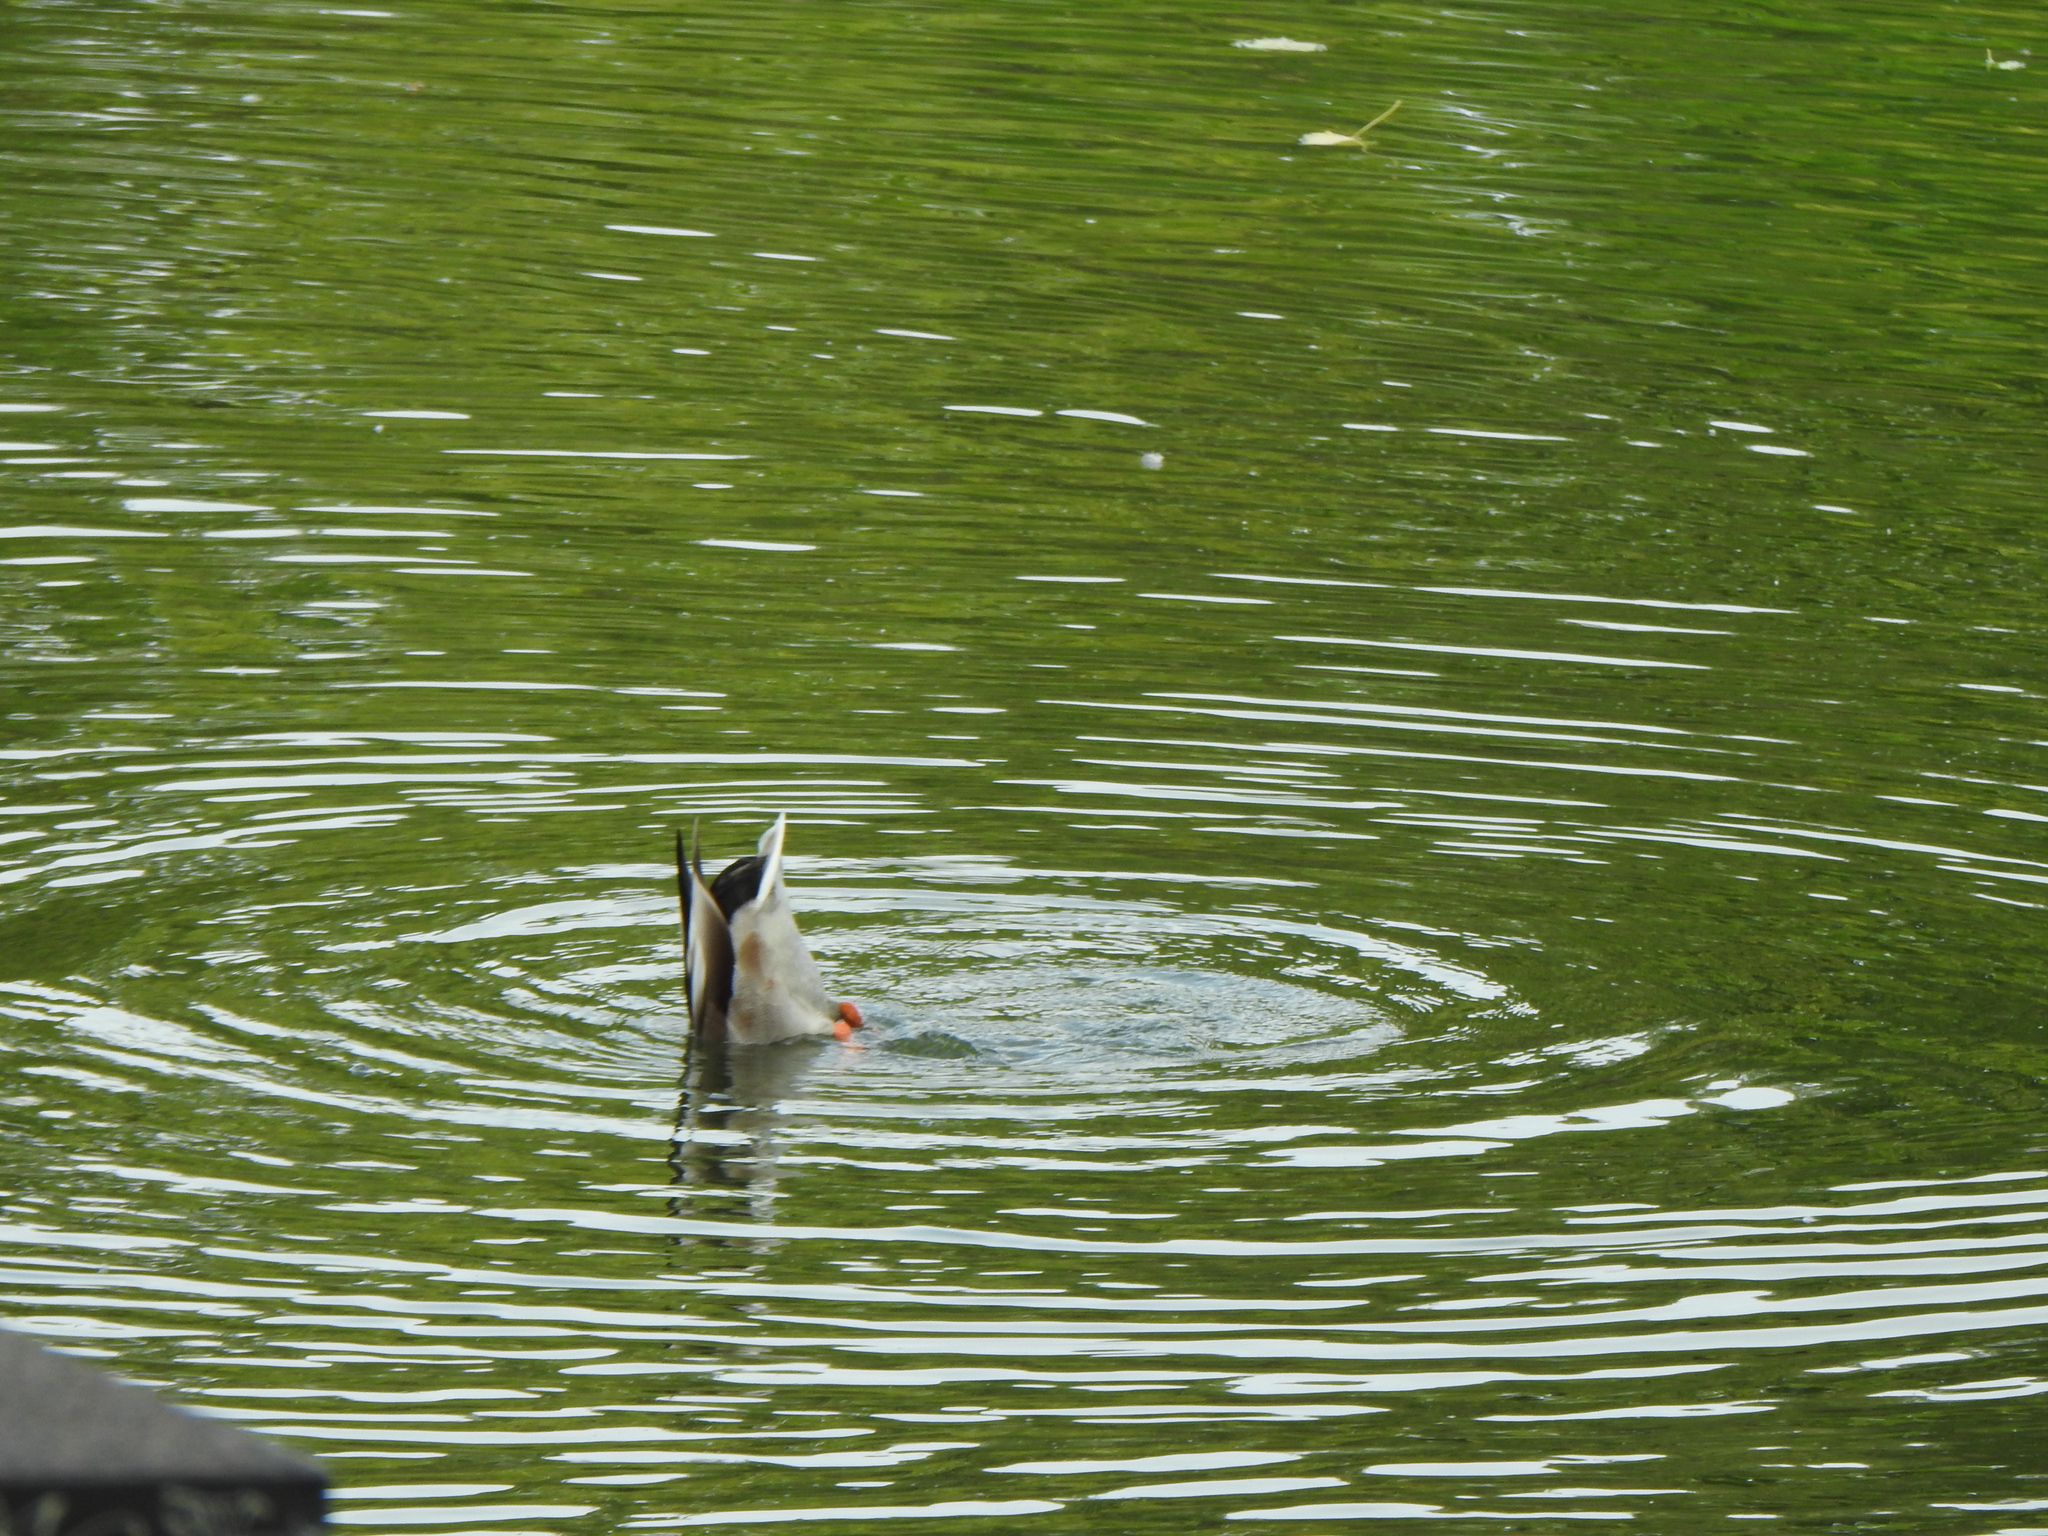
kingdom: Animalia
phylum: Chordata
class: Aves
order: Anseriformes
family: Anatidae
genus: Anas
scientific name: Anas platyrhynchos
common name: Mallard
